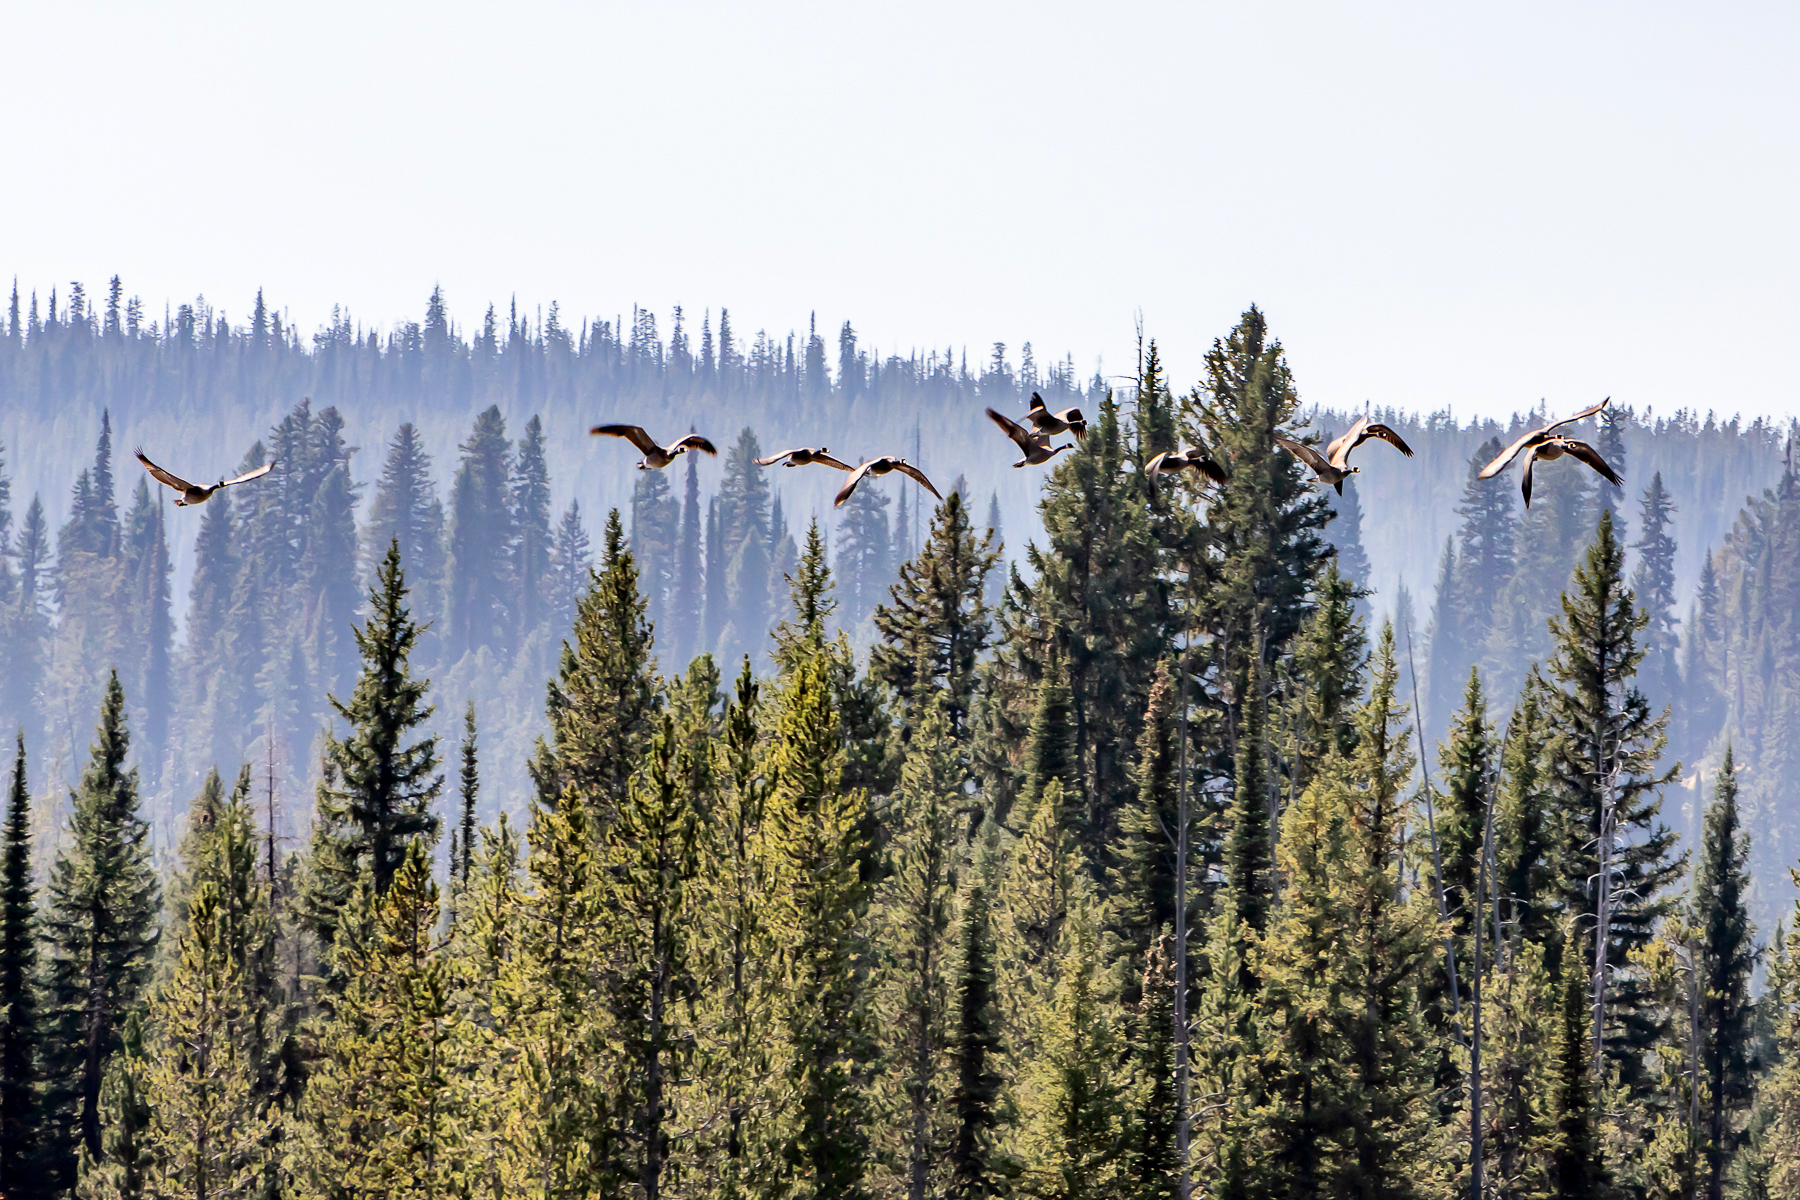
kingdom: Animalia
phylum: Chordata
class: Aves
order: Anseriformes
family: Anatidae
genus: Branta
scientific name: Branta canadensis
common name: Canada goose
